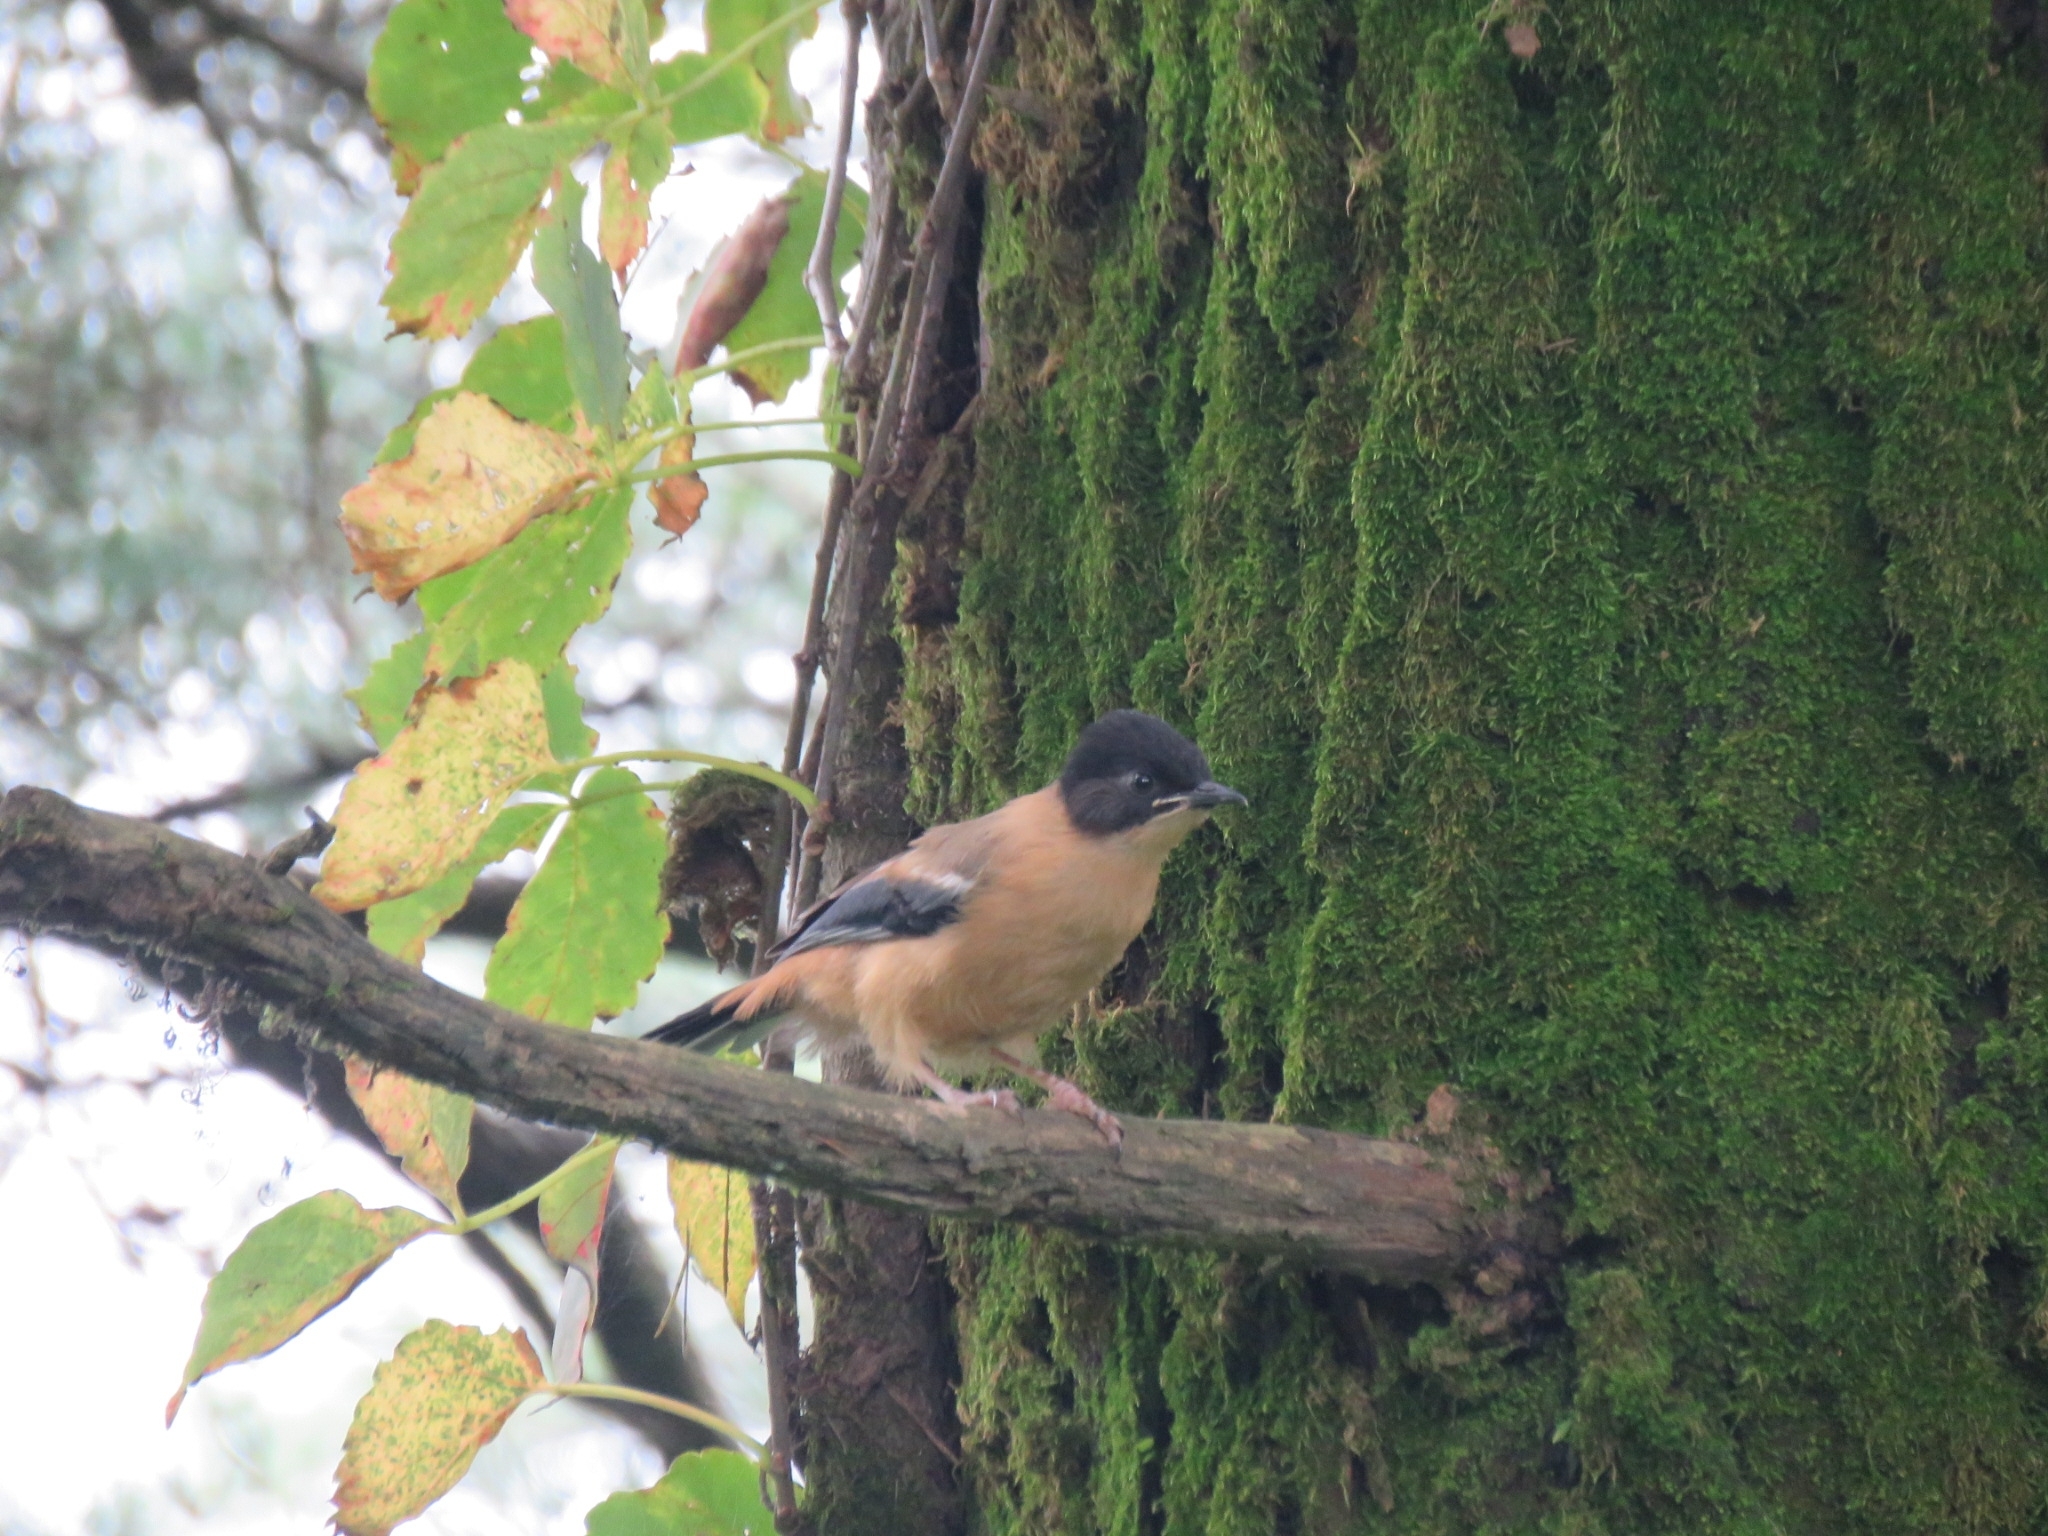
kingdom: Animalia
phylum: Chordata
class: Aves
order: Passeriformes
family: Leiothrichidae
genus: Heterophasia
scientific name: Heterophasia capistrata
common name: Rufous sibia
